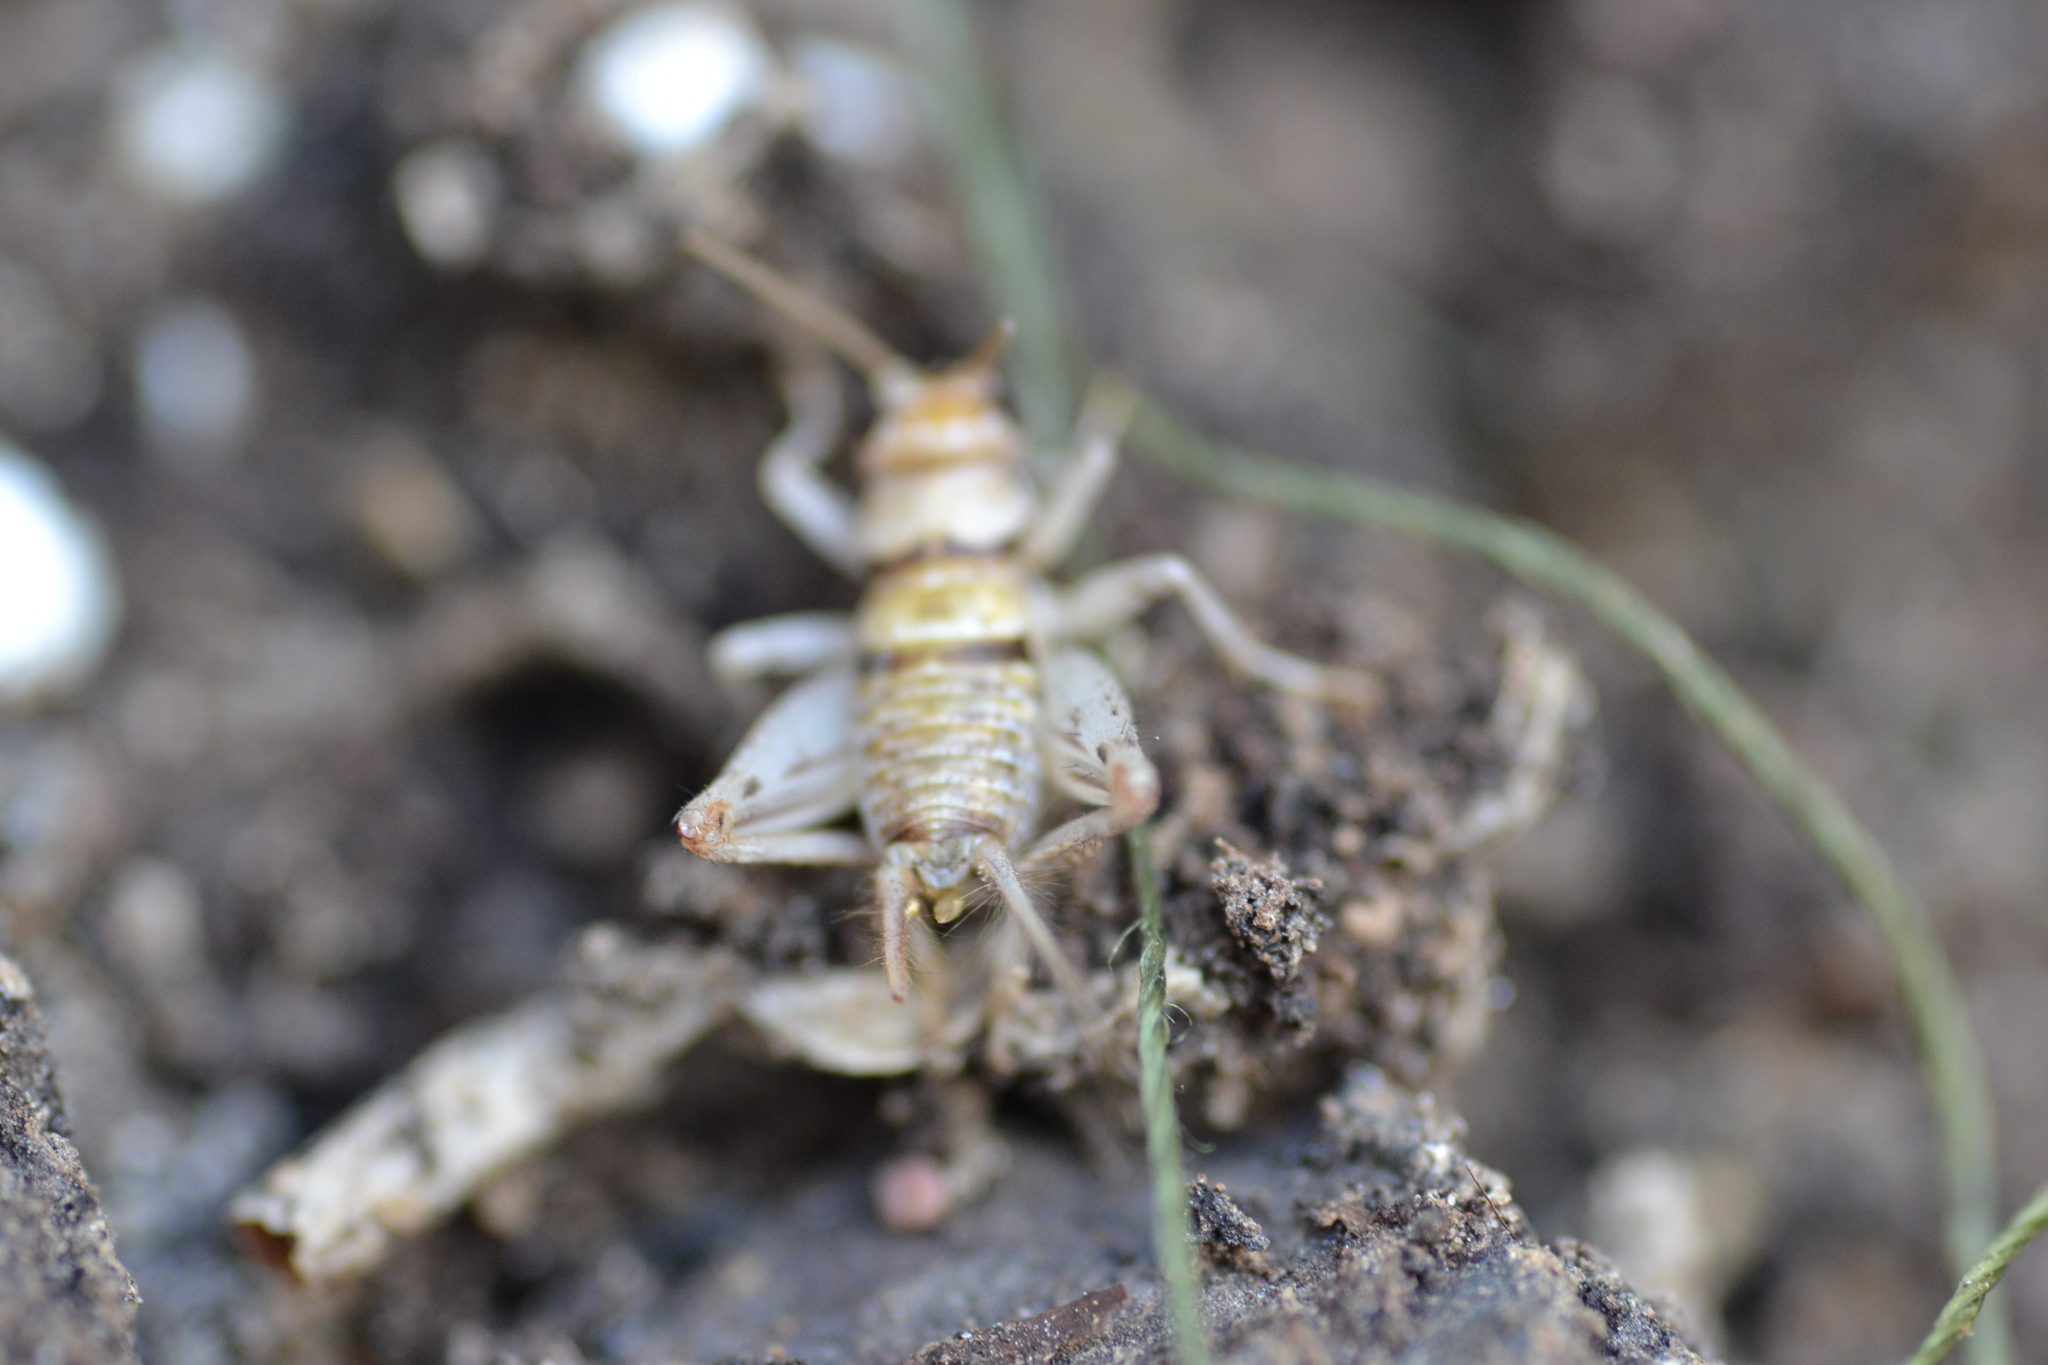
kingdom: Animalia
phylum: Arthropoda
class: Insecta
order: Orthoptera
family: Gryllidae
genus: Gryllodes
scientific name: Gryllodes sigillatus
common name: Tropical house cricket
